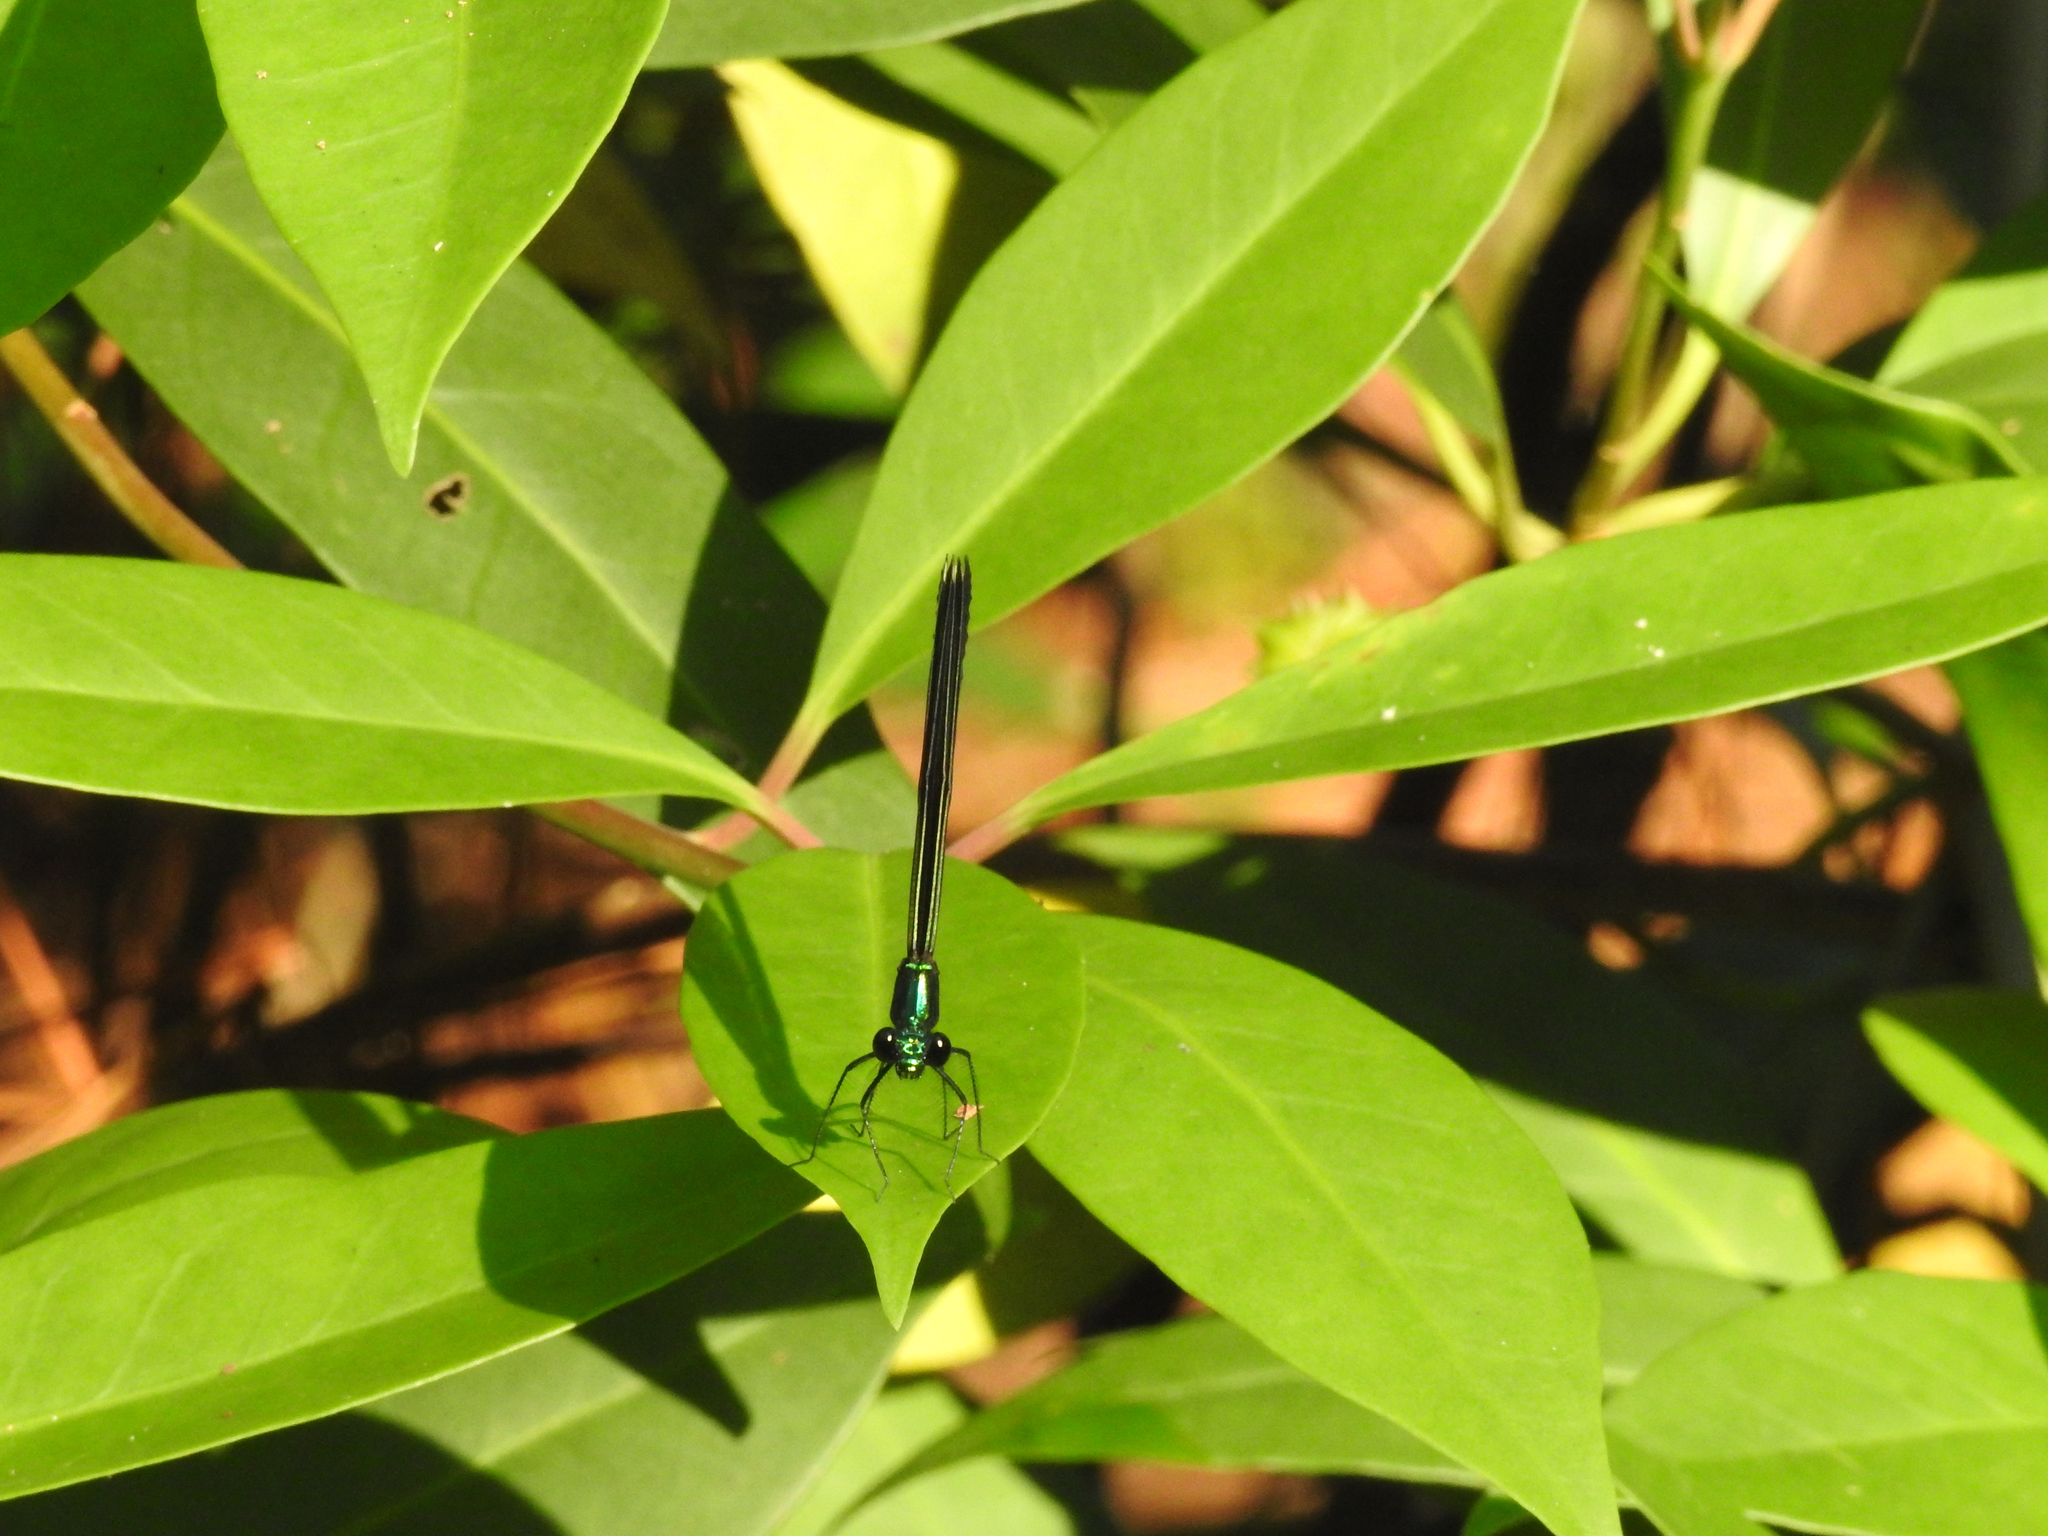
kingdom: Animalia
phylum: Arthropoda
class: Insecta
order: Odonata
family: Calopterygidae
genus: Calopteryx
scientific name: Calopteryx maculata
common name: Ebony jewelwing
